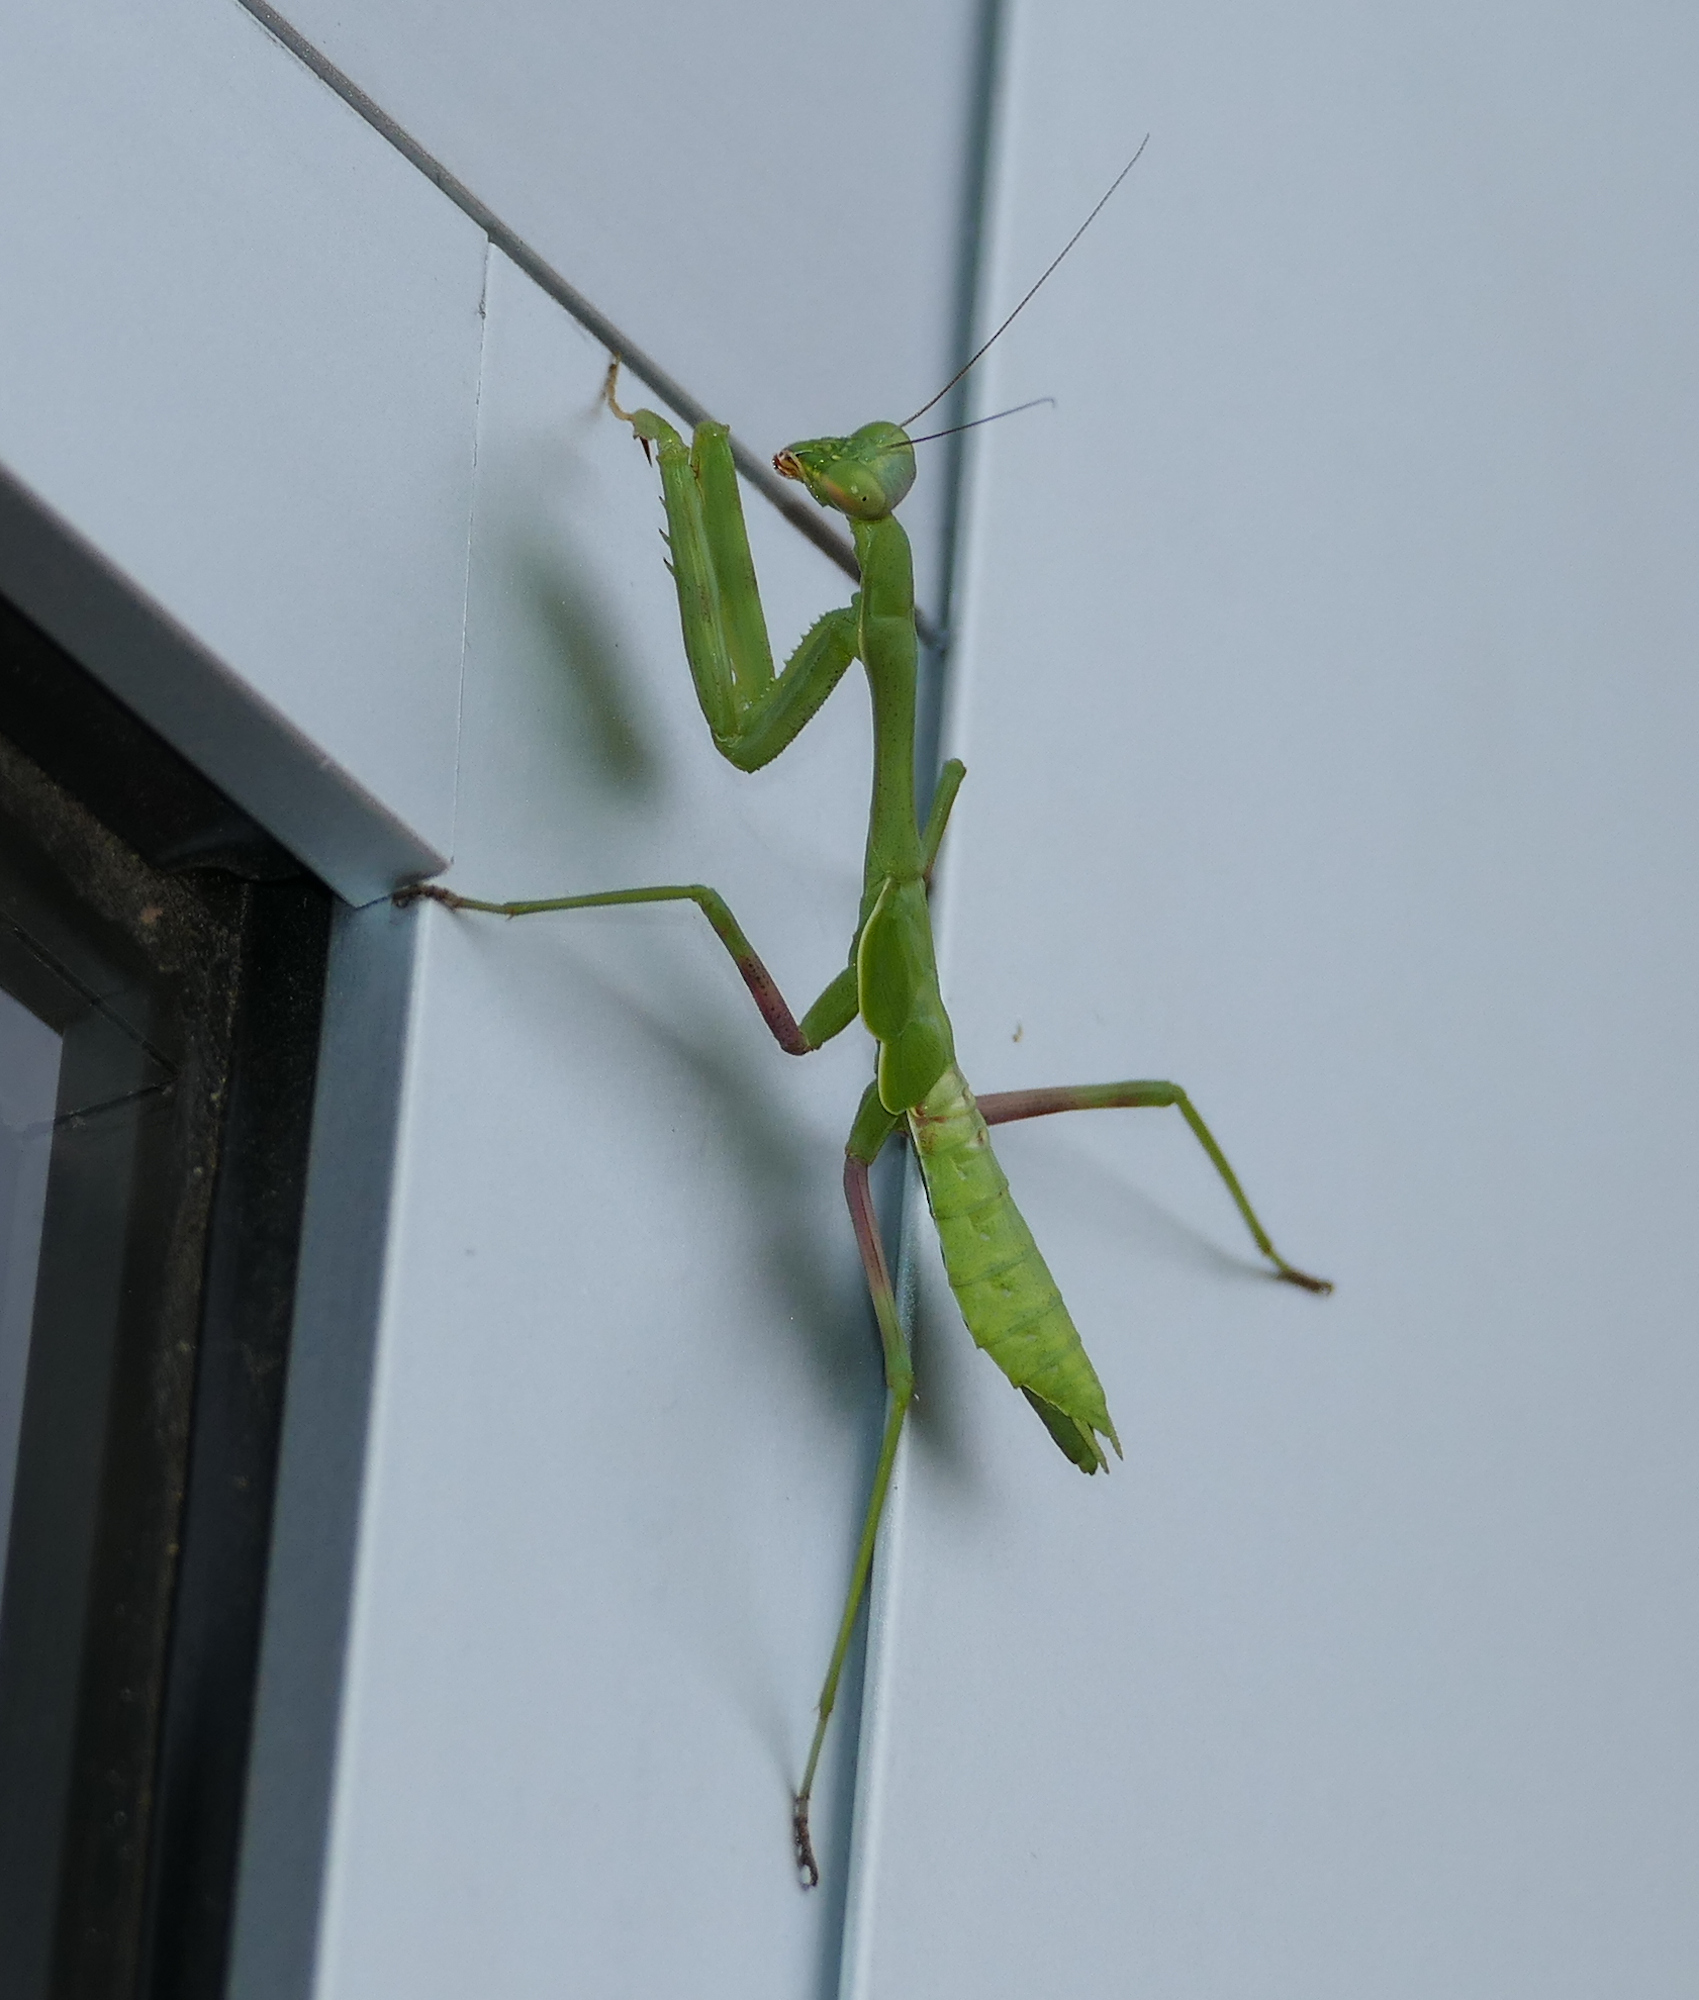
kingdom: Animalia
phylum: Arthropoda
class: Insecta
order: Mantodea
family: Mantidae
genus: Stagmomantis
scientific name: Stagmomantis limbata
